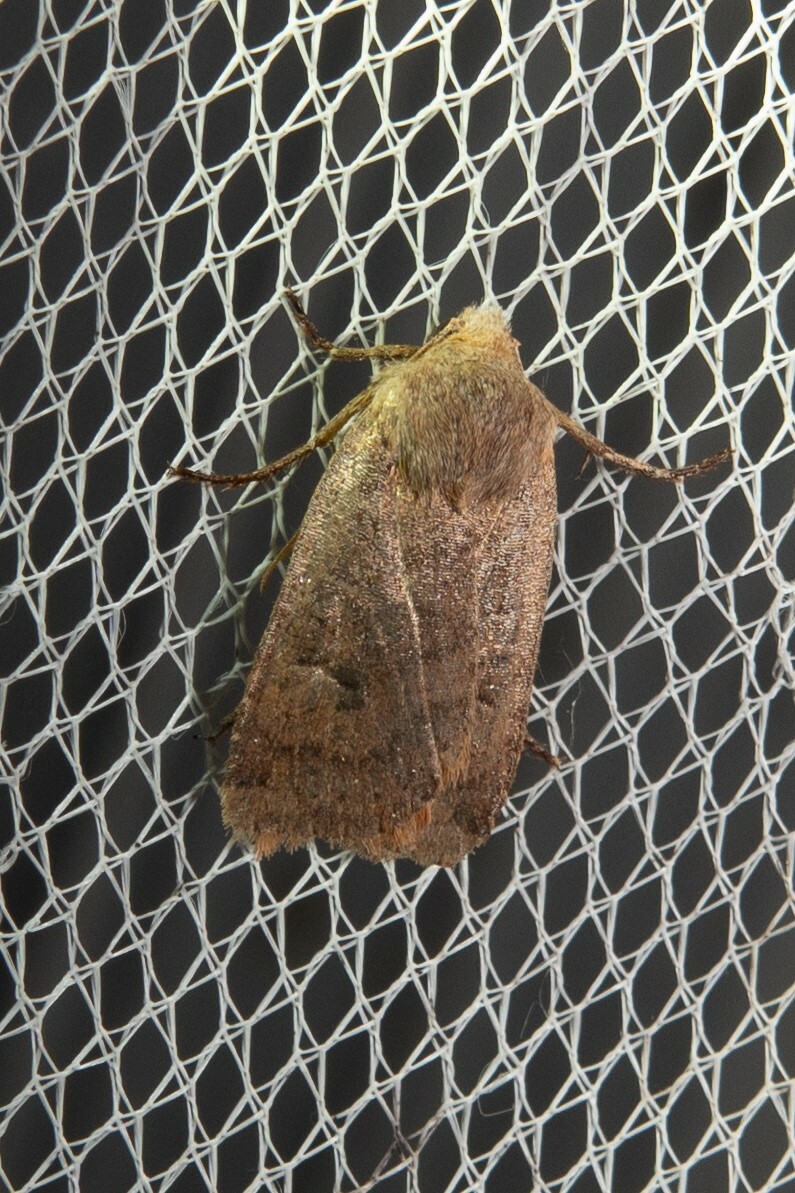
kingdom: Animalia
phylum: Arthropoda
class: Insecta
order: Lepidoptera
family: Noctuidae
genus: Conistra
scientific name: Conistra vaccinii
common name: Chestnut
